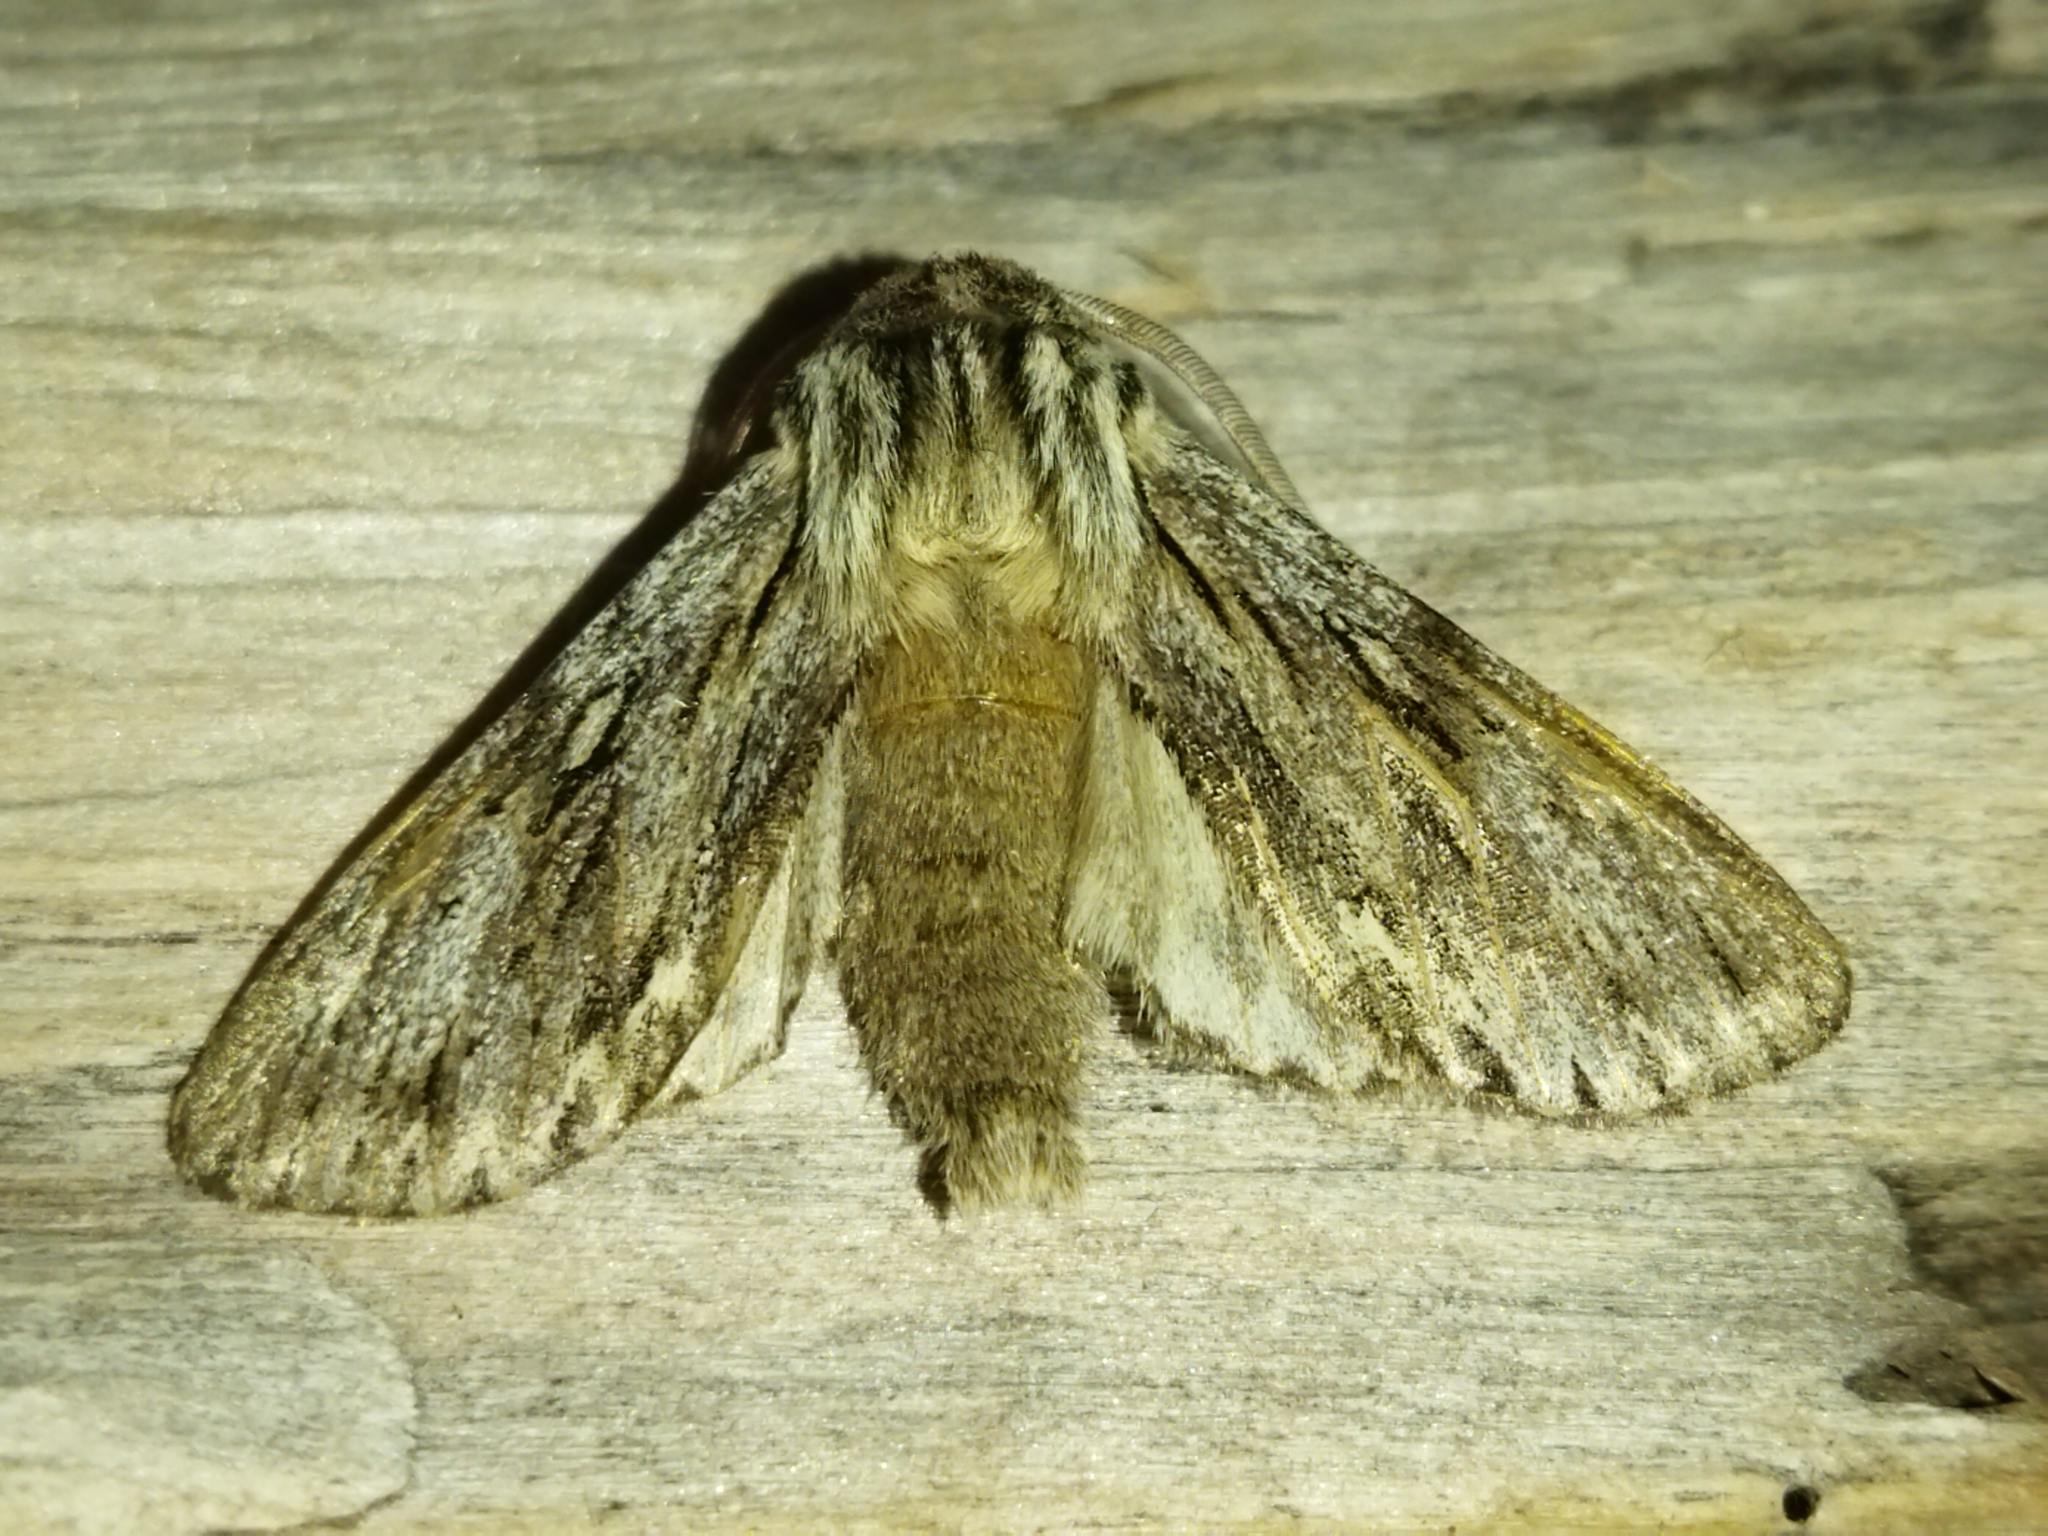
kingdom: Animalia
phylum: Arthropoda
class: Insecta
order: Lepidoptera
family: Noctuidae
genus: Asteroscopus
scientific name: Asteroscopus sphinx
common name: The sprawler
